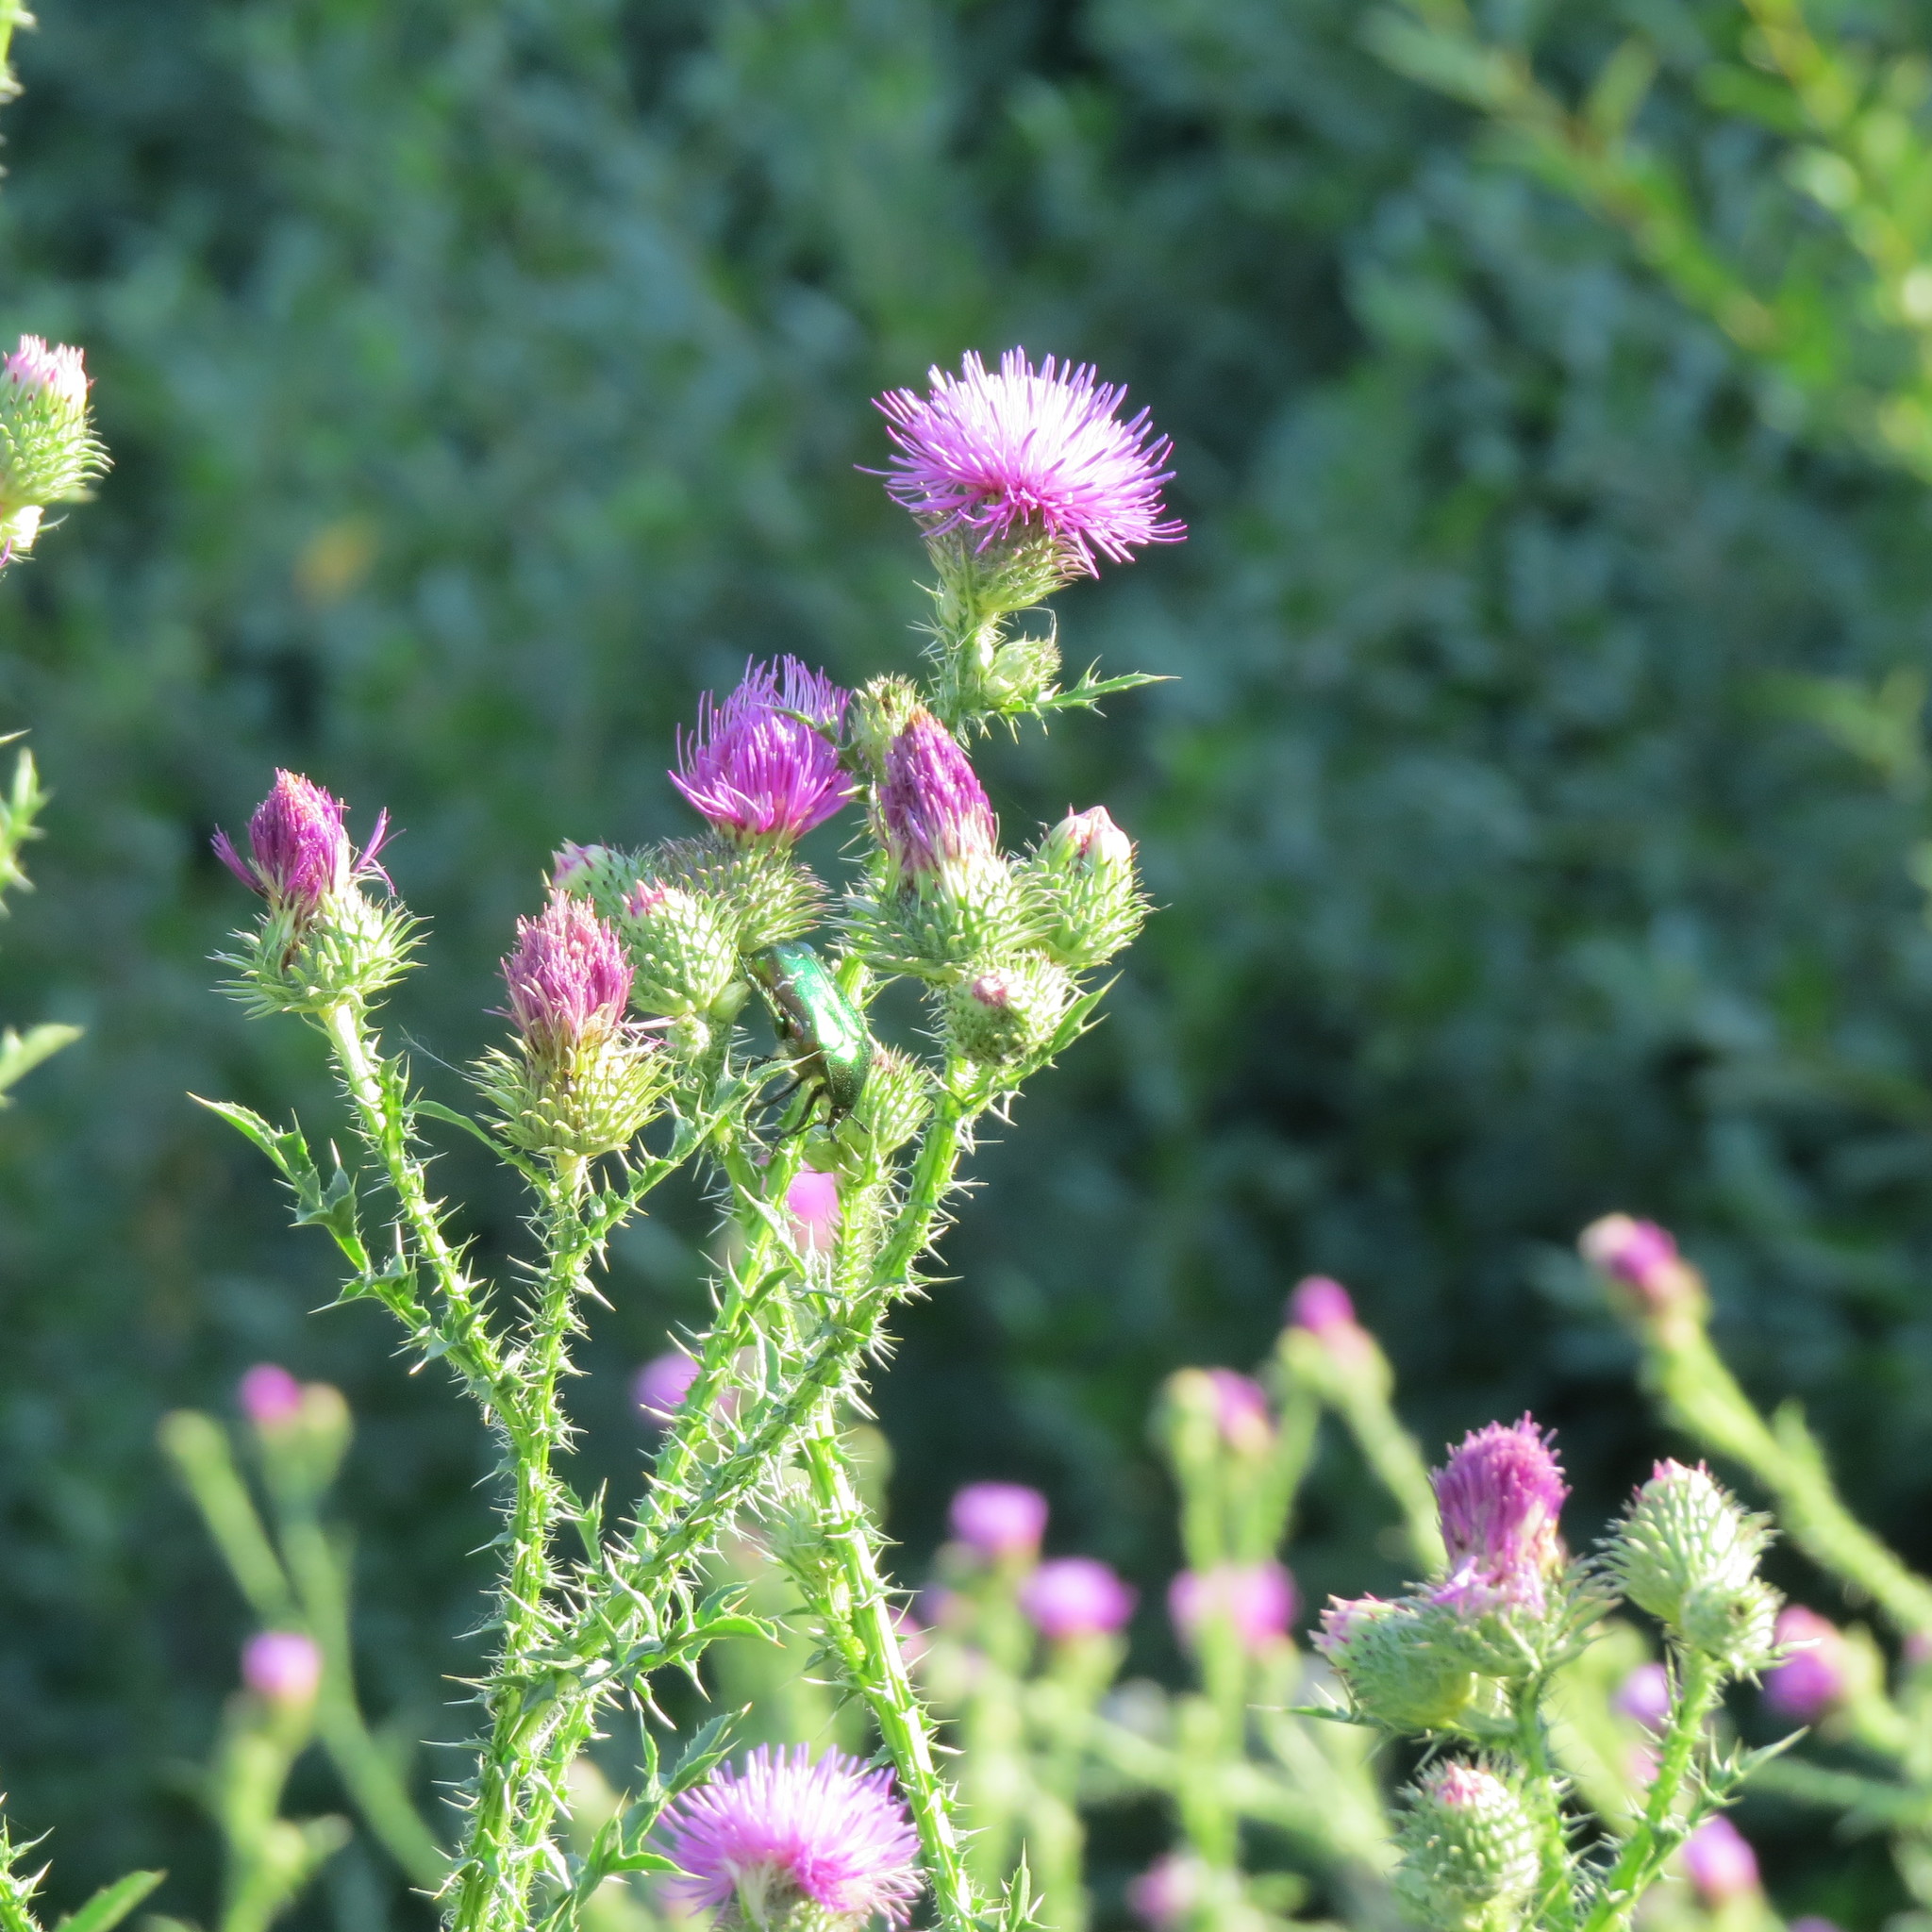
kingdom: Plantae
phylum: Tracheophyta
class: Magnoliopsida
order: Asterales
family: Asteraceae
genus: Carduus
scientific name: Carduus acanthoides
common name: Plumeless thistle
